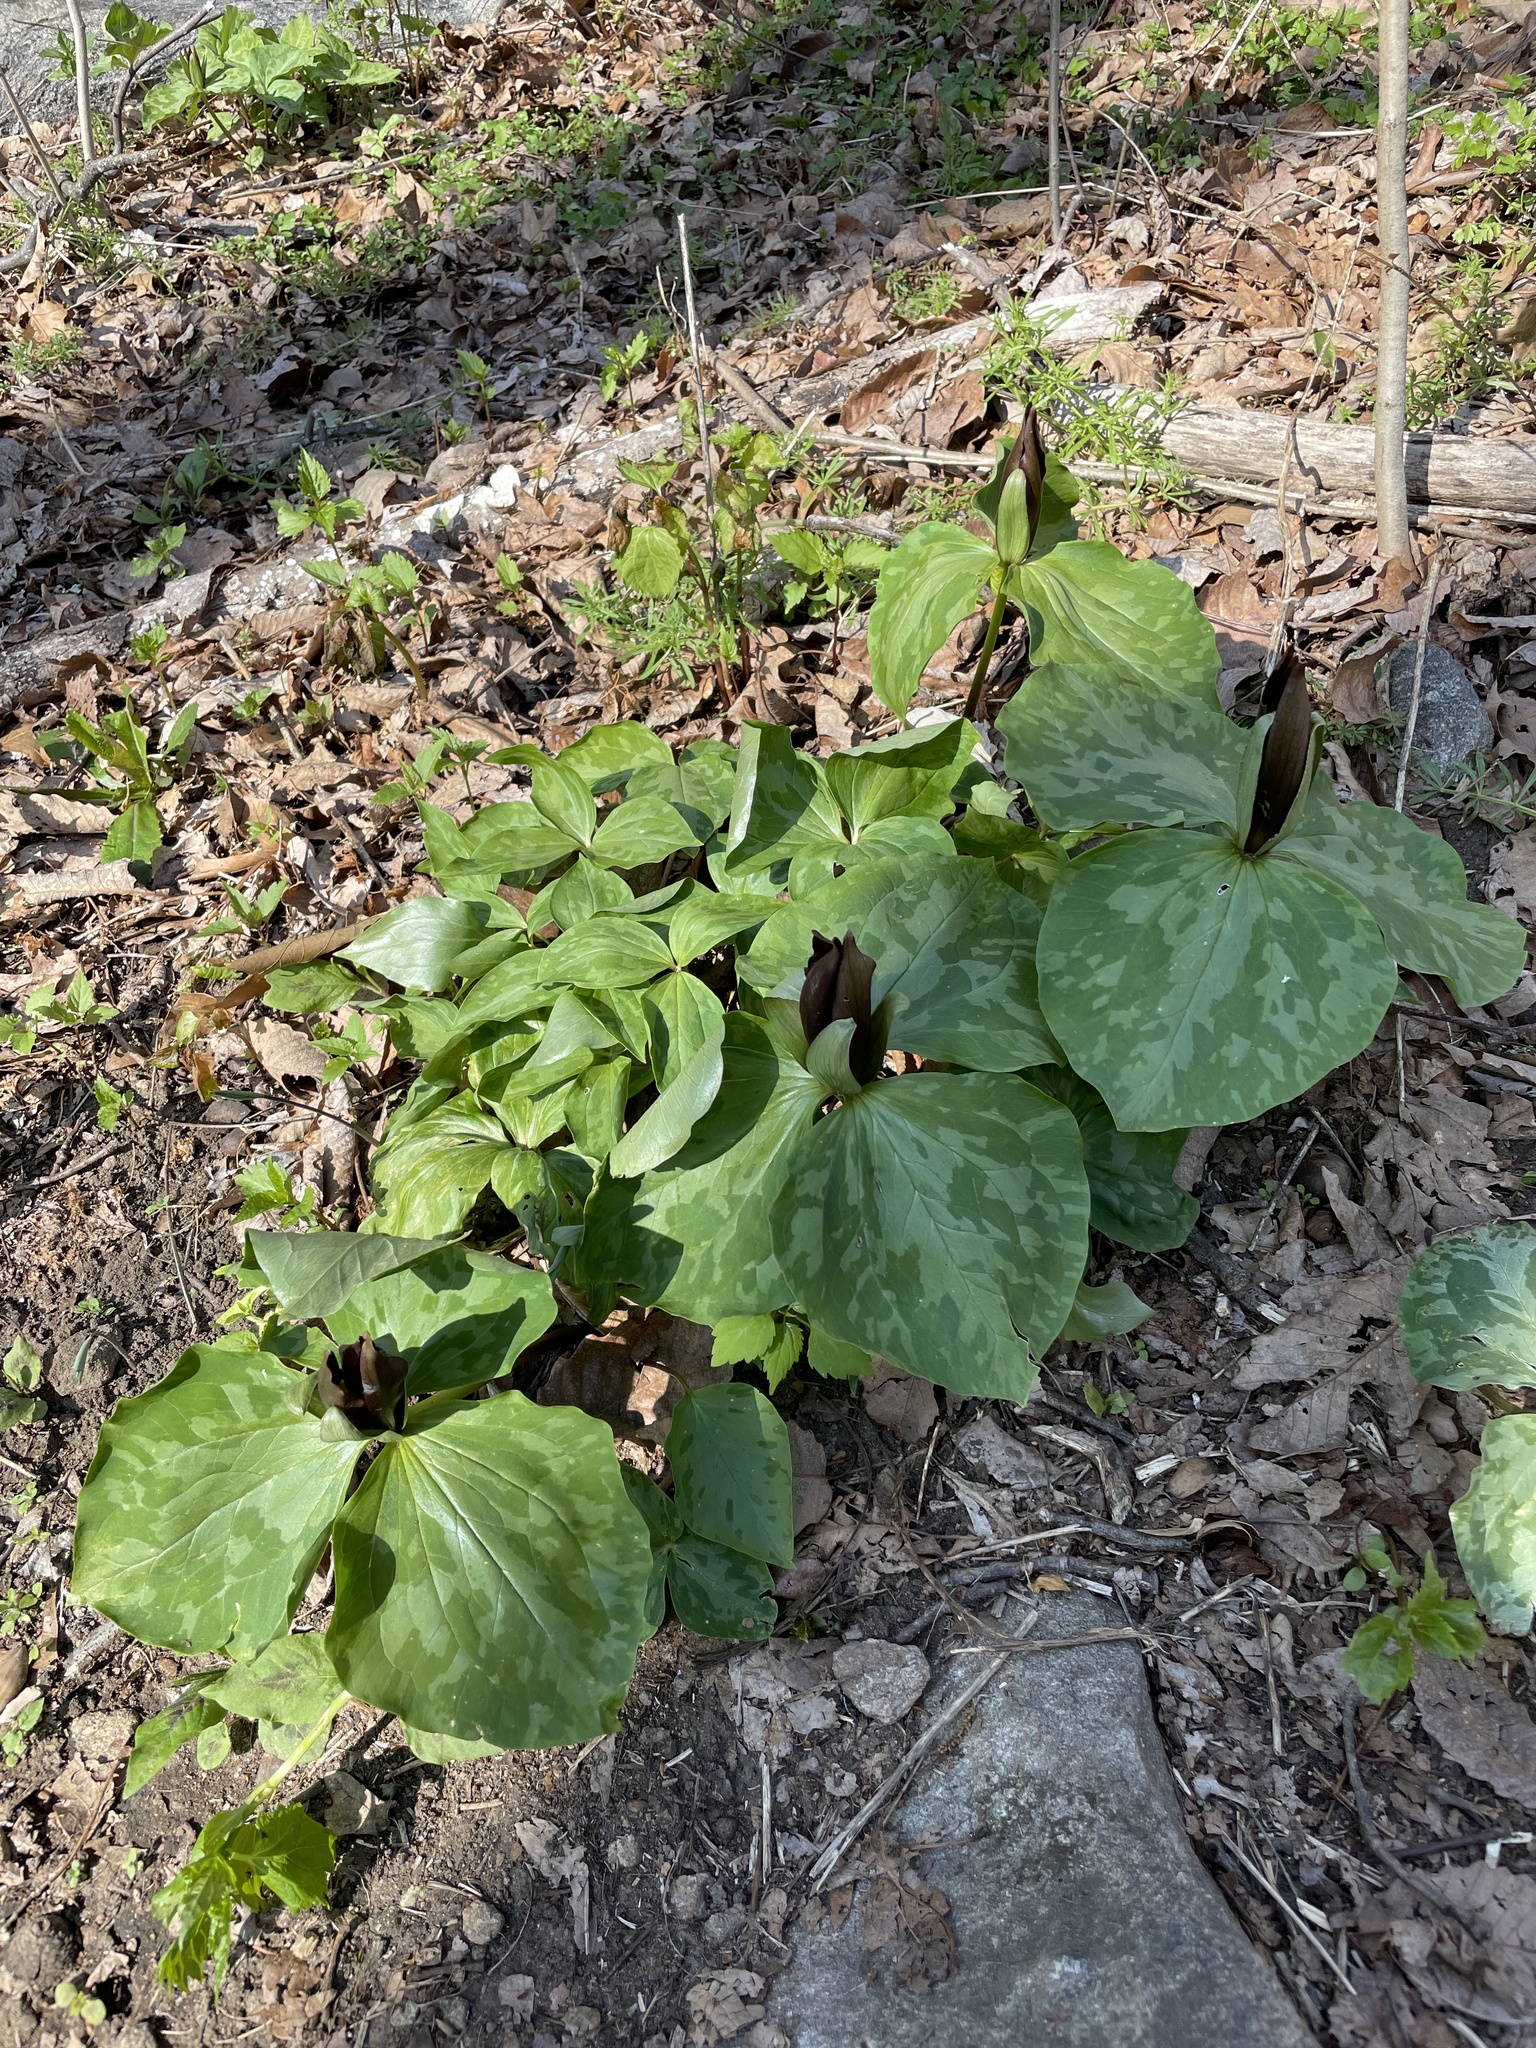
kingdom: Plantae
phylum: Tracheophyta
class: Liliopsida
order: Liliales
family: Melanthiaceae
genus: Trillium
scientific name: Trillium cuneatum
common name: Cuneate trillium
